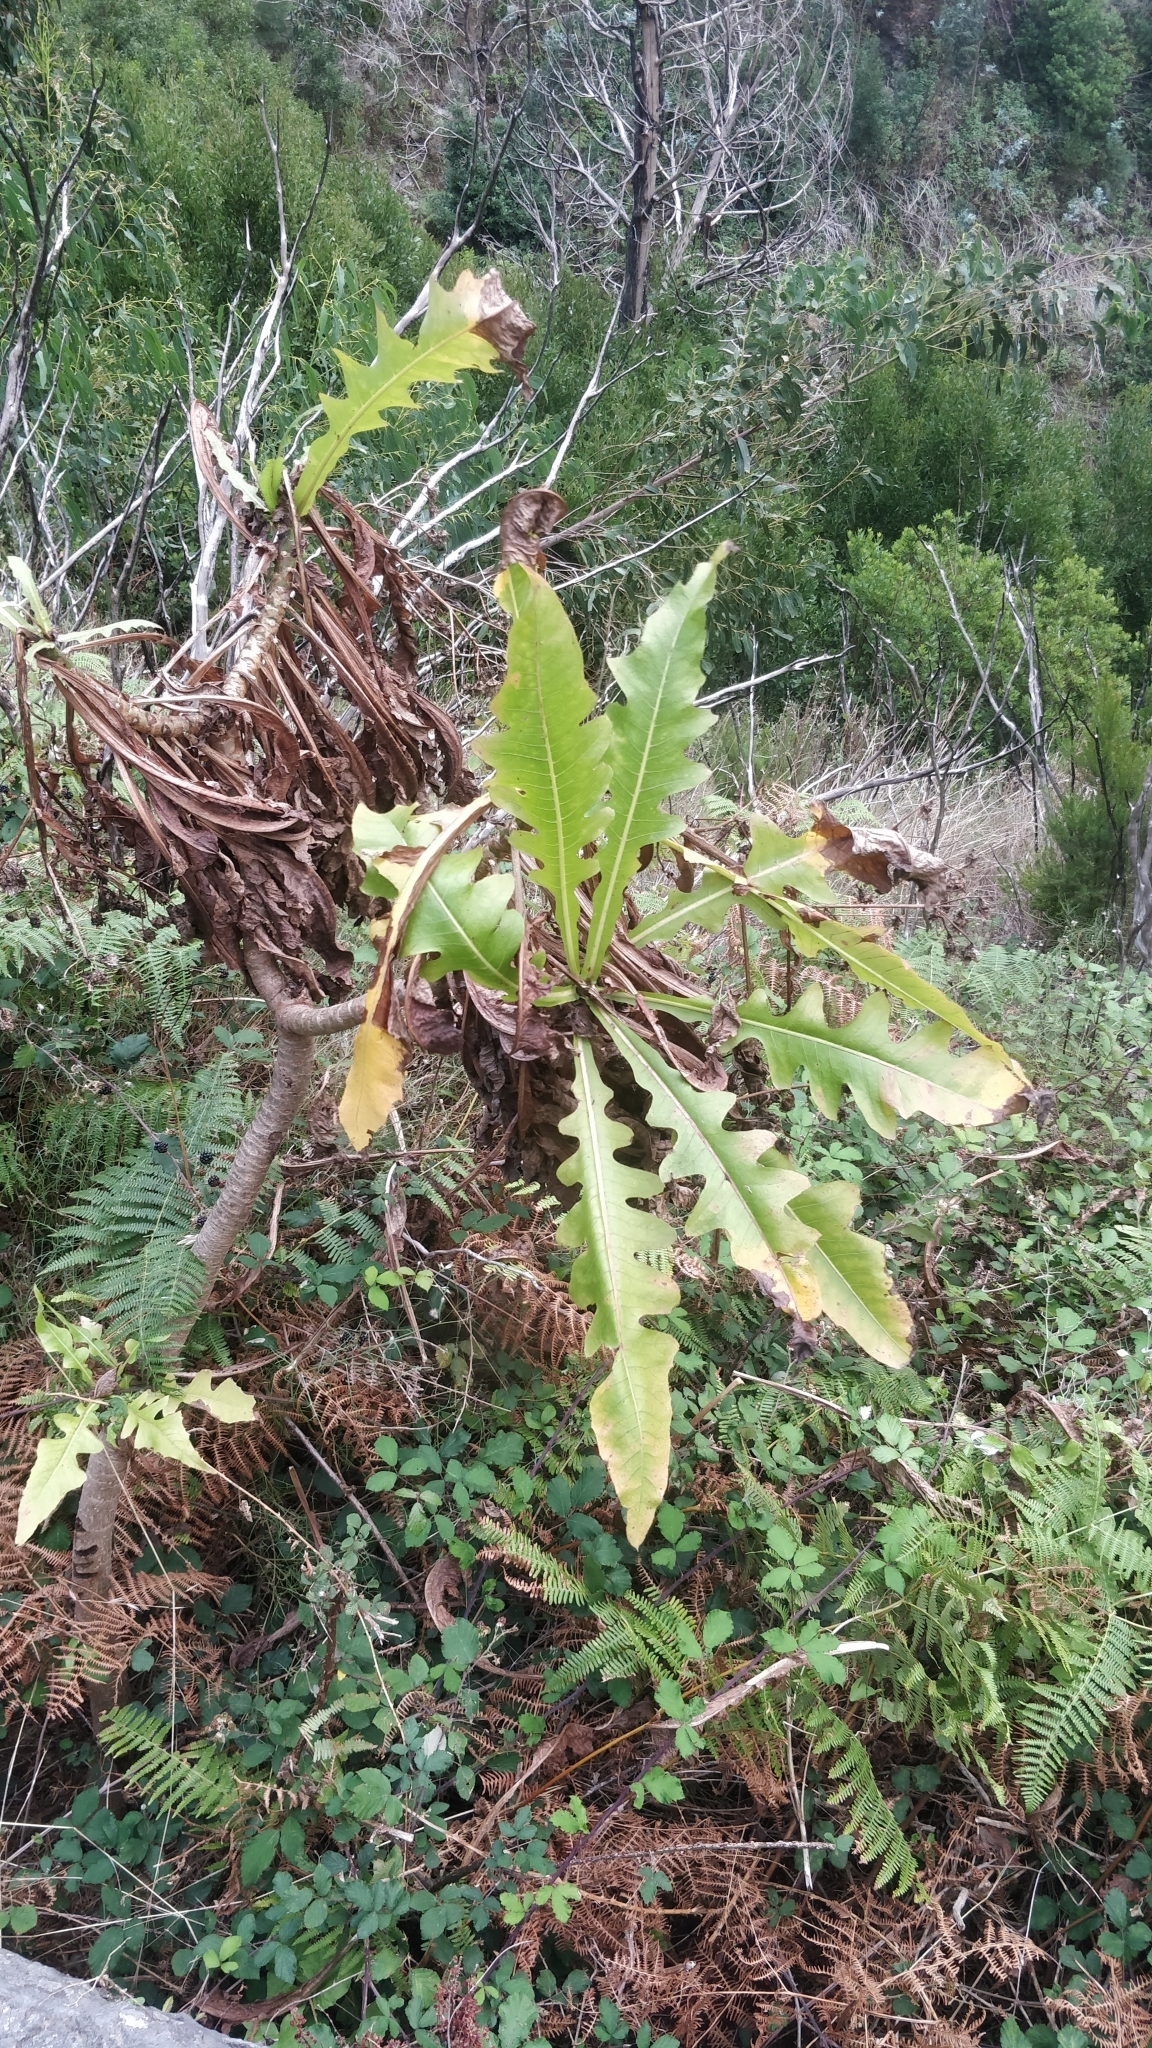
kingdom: Plantae
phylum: Tracheophyta
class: Magnoliopsida
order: Asterales
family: Asteraceae
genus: Sonchus
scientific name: Sonchus fruticosus
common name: Shrubby sow-thistle
